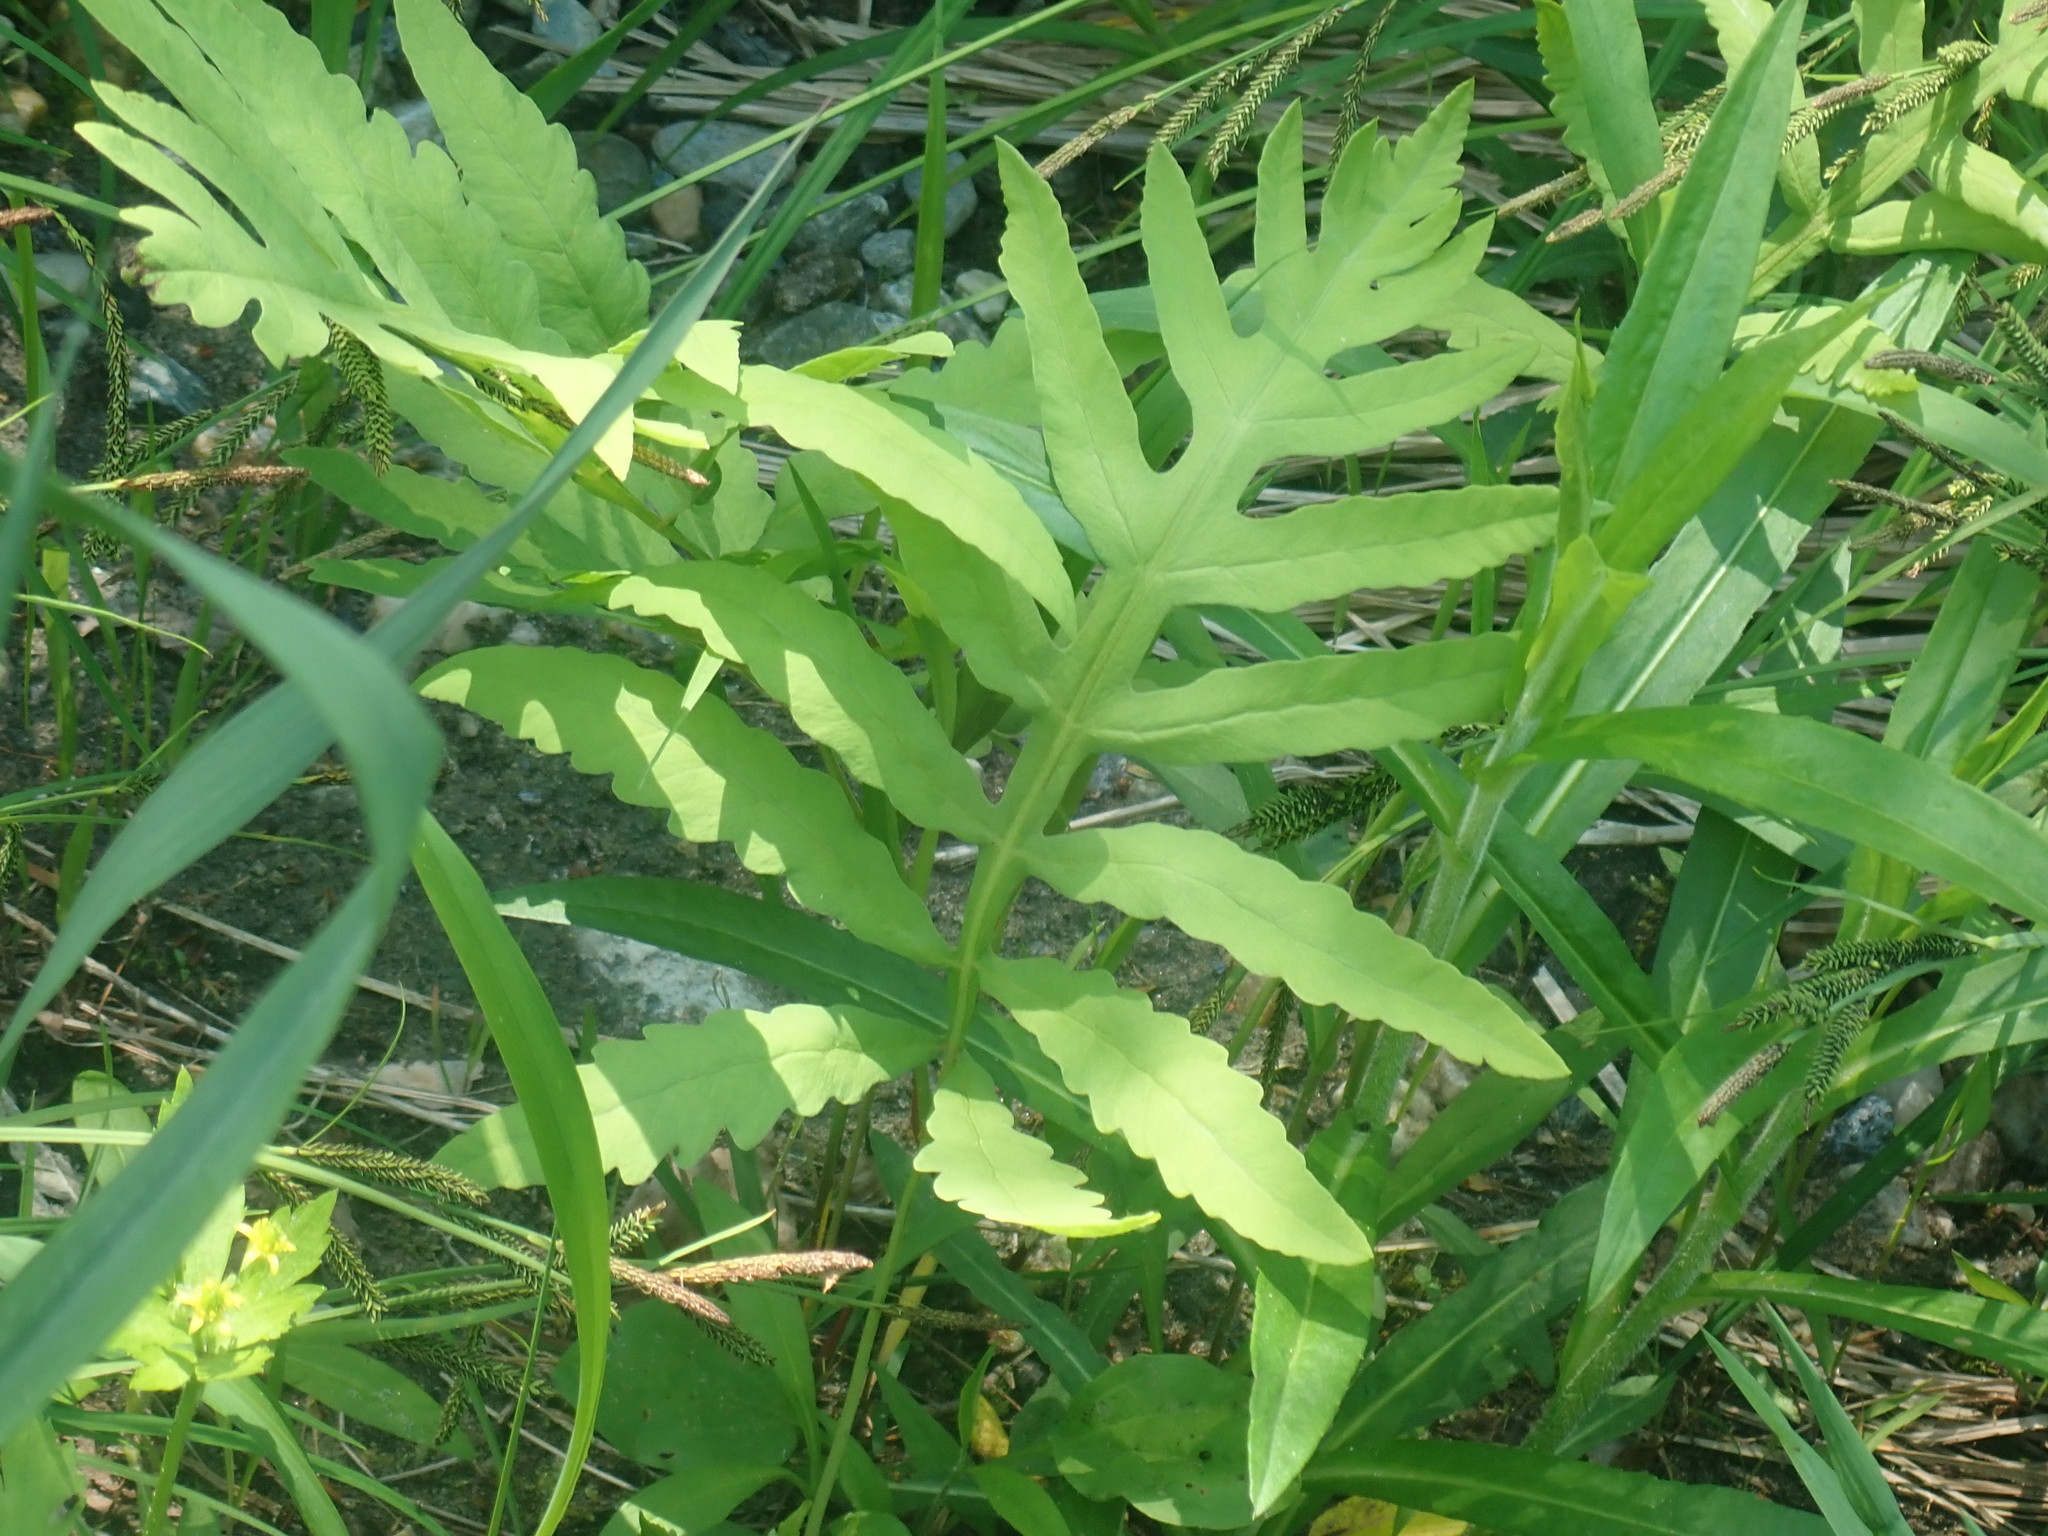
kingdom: Plantae
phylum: Tracheophyta
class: Polypodiopsida
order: Polypodiales
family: Onocleaceae
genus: Onoclea
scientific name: Onoclea sensibilis
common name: Sensitive fern
